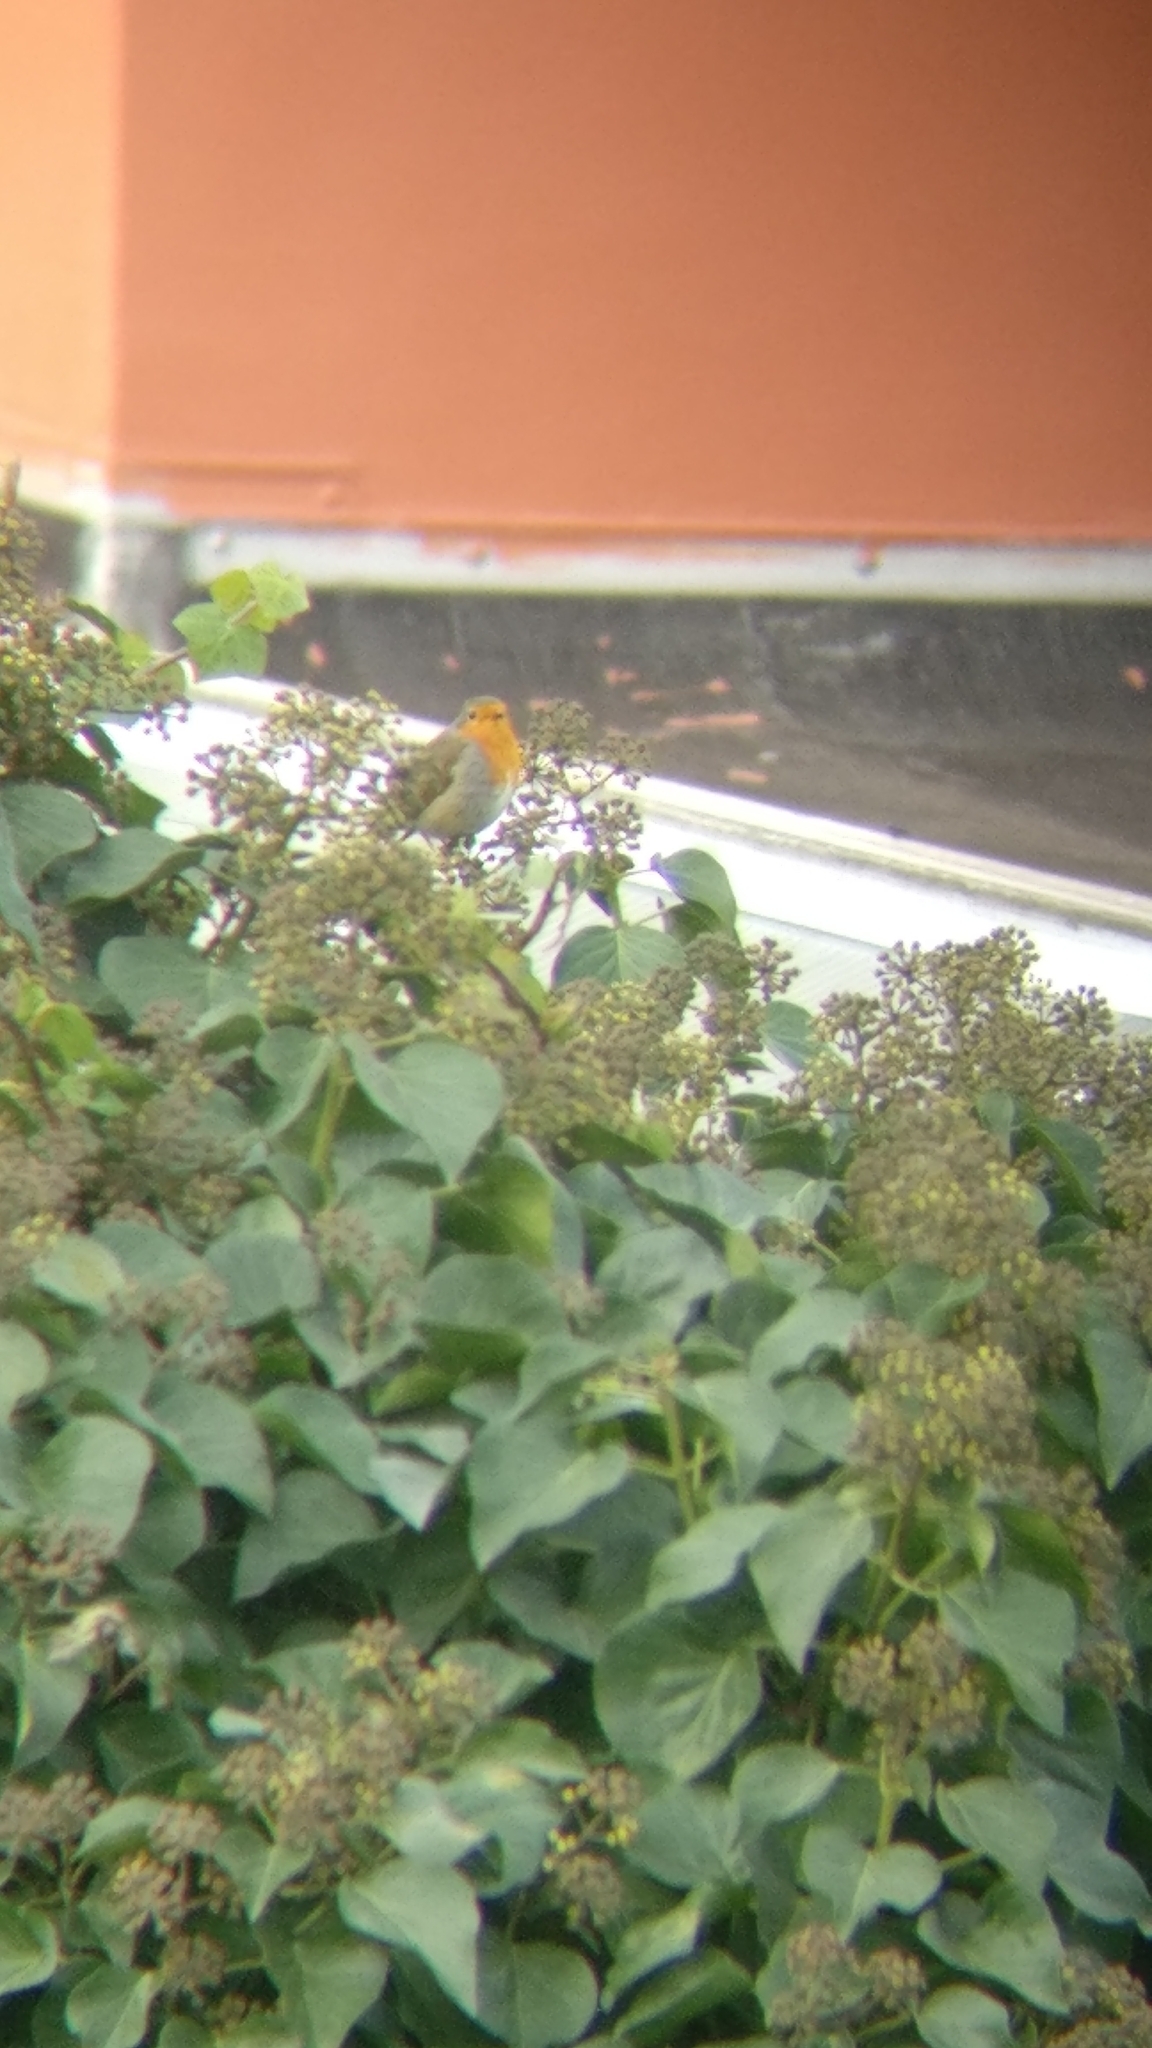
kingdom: Animalia
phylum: Chordata
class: Aves
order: Passeriformes
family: Muscicapidae
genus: Erithacus
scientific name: Erithacus rubecula
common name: European robin
